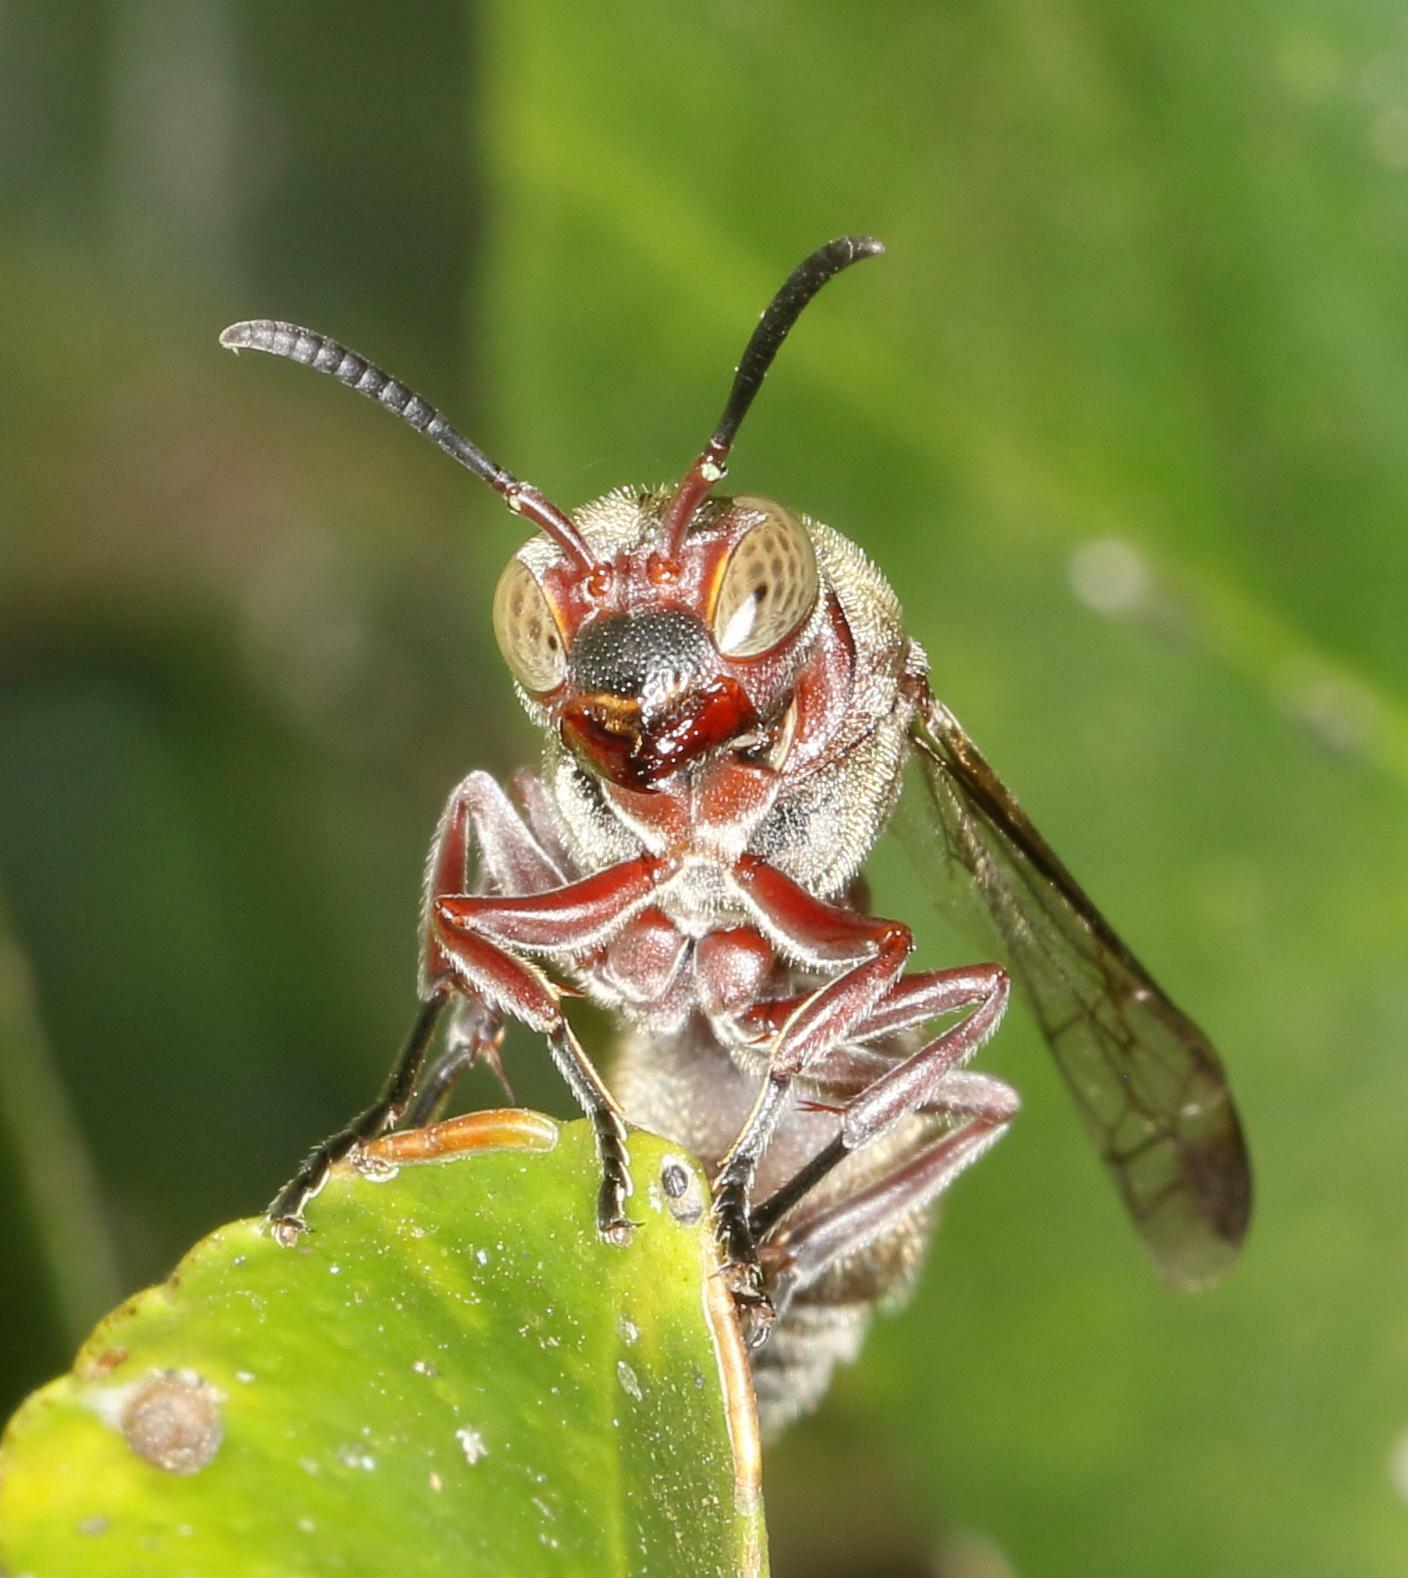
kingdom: Animalia
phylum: Arthropoda
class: Insecta
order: Hymenoptera
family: Vespidae
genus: Ropalidia
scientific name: Ropalidia tomentosa
